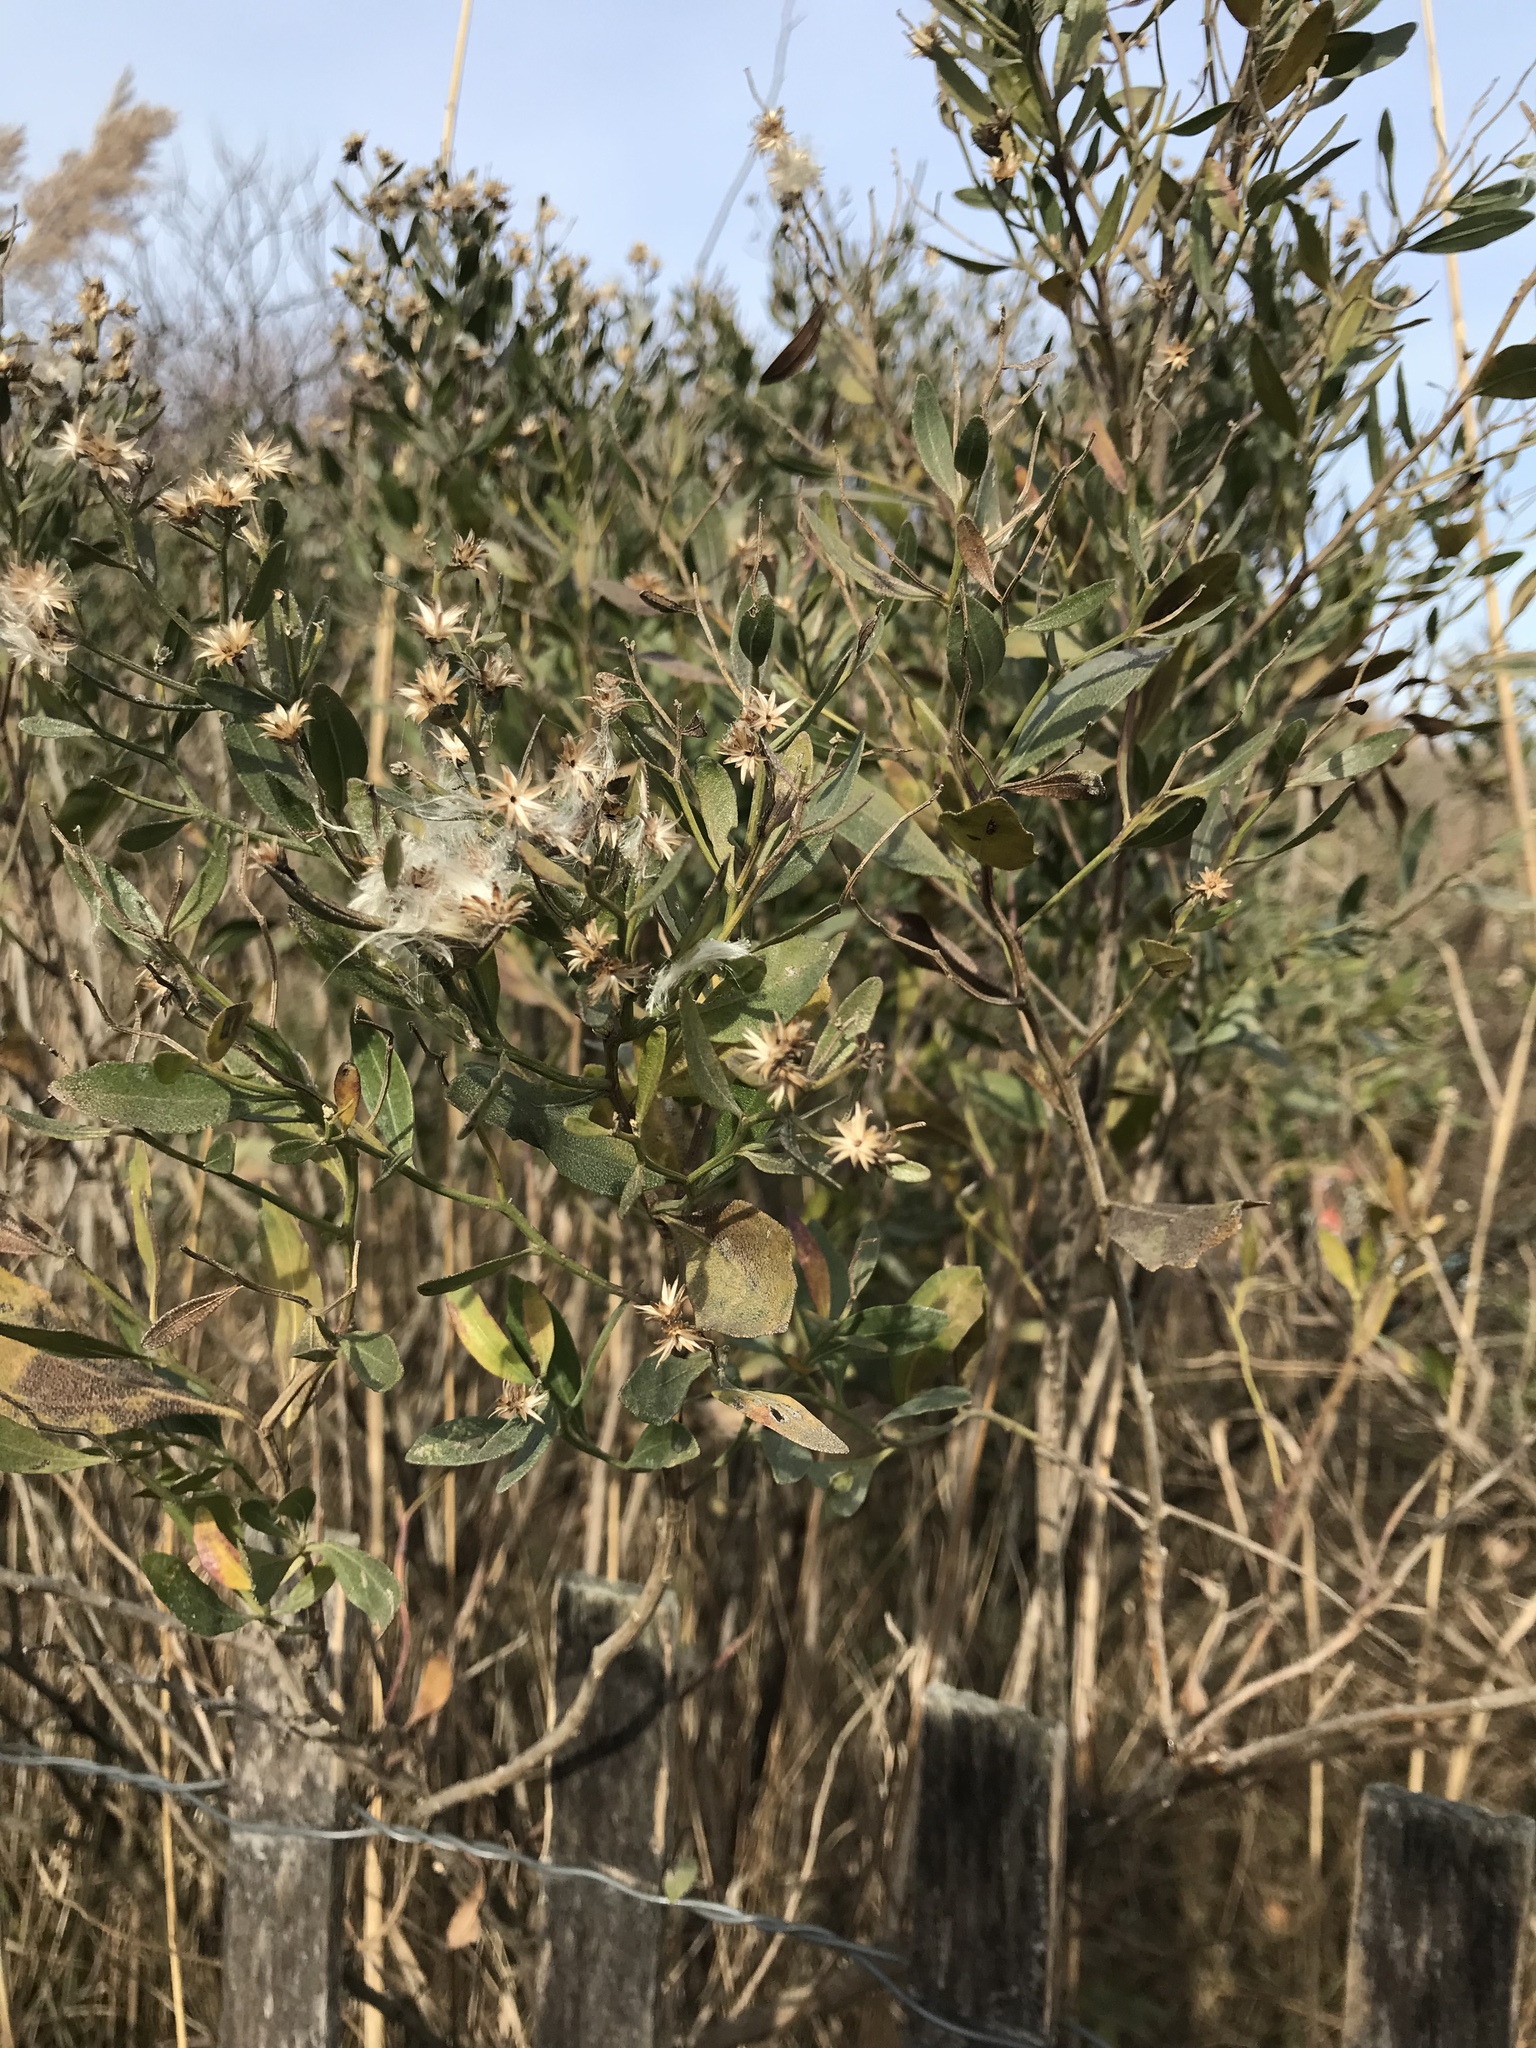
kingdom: Plantae
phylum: Tracheophyta
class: Magnoliopsida
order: Asterales
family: Asteraceae
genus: Baccharis
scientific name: Baccharis halimifolia
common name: Eastern baccharis
